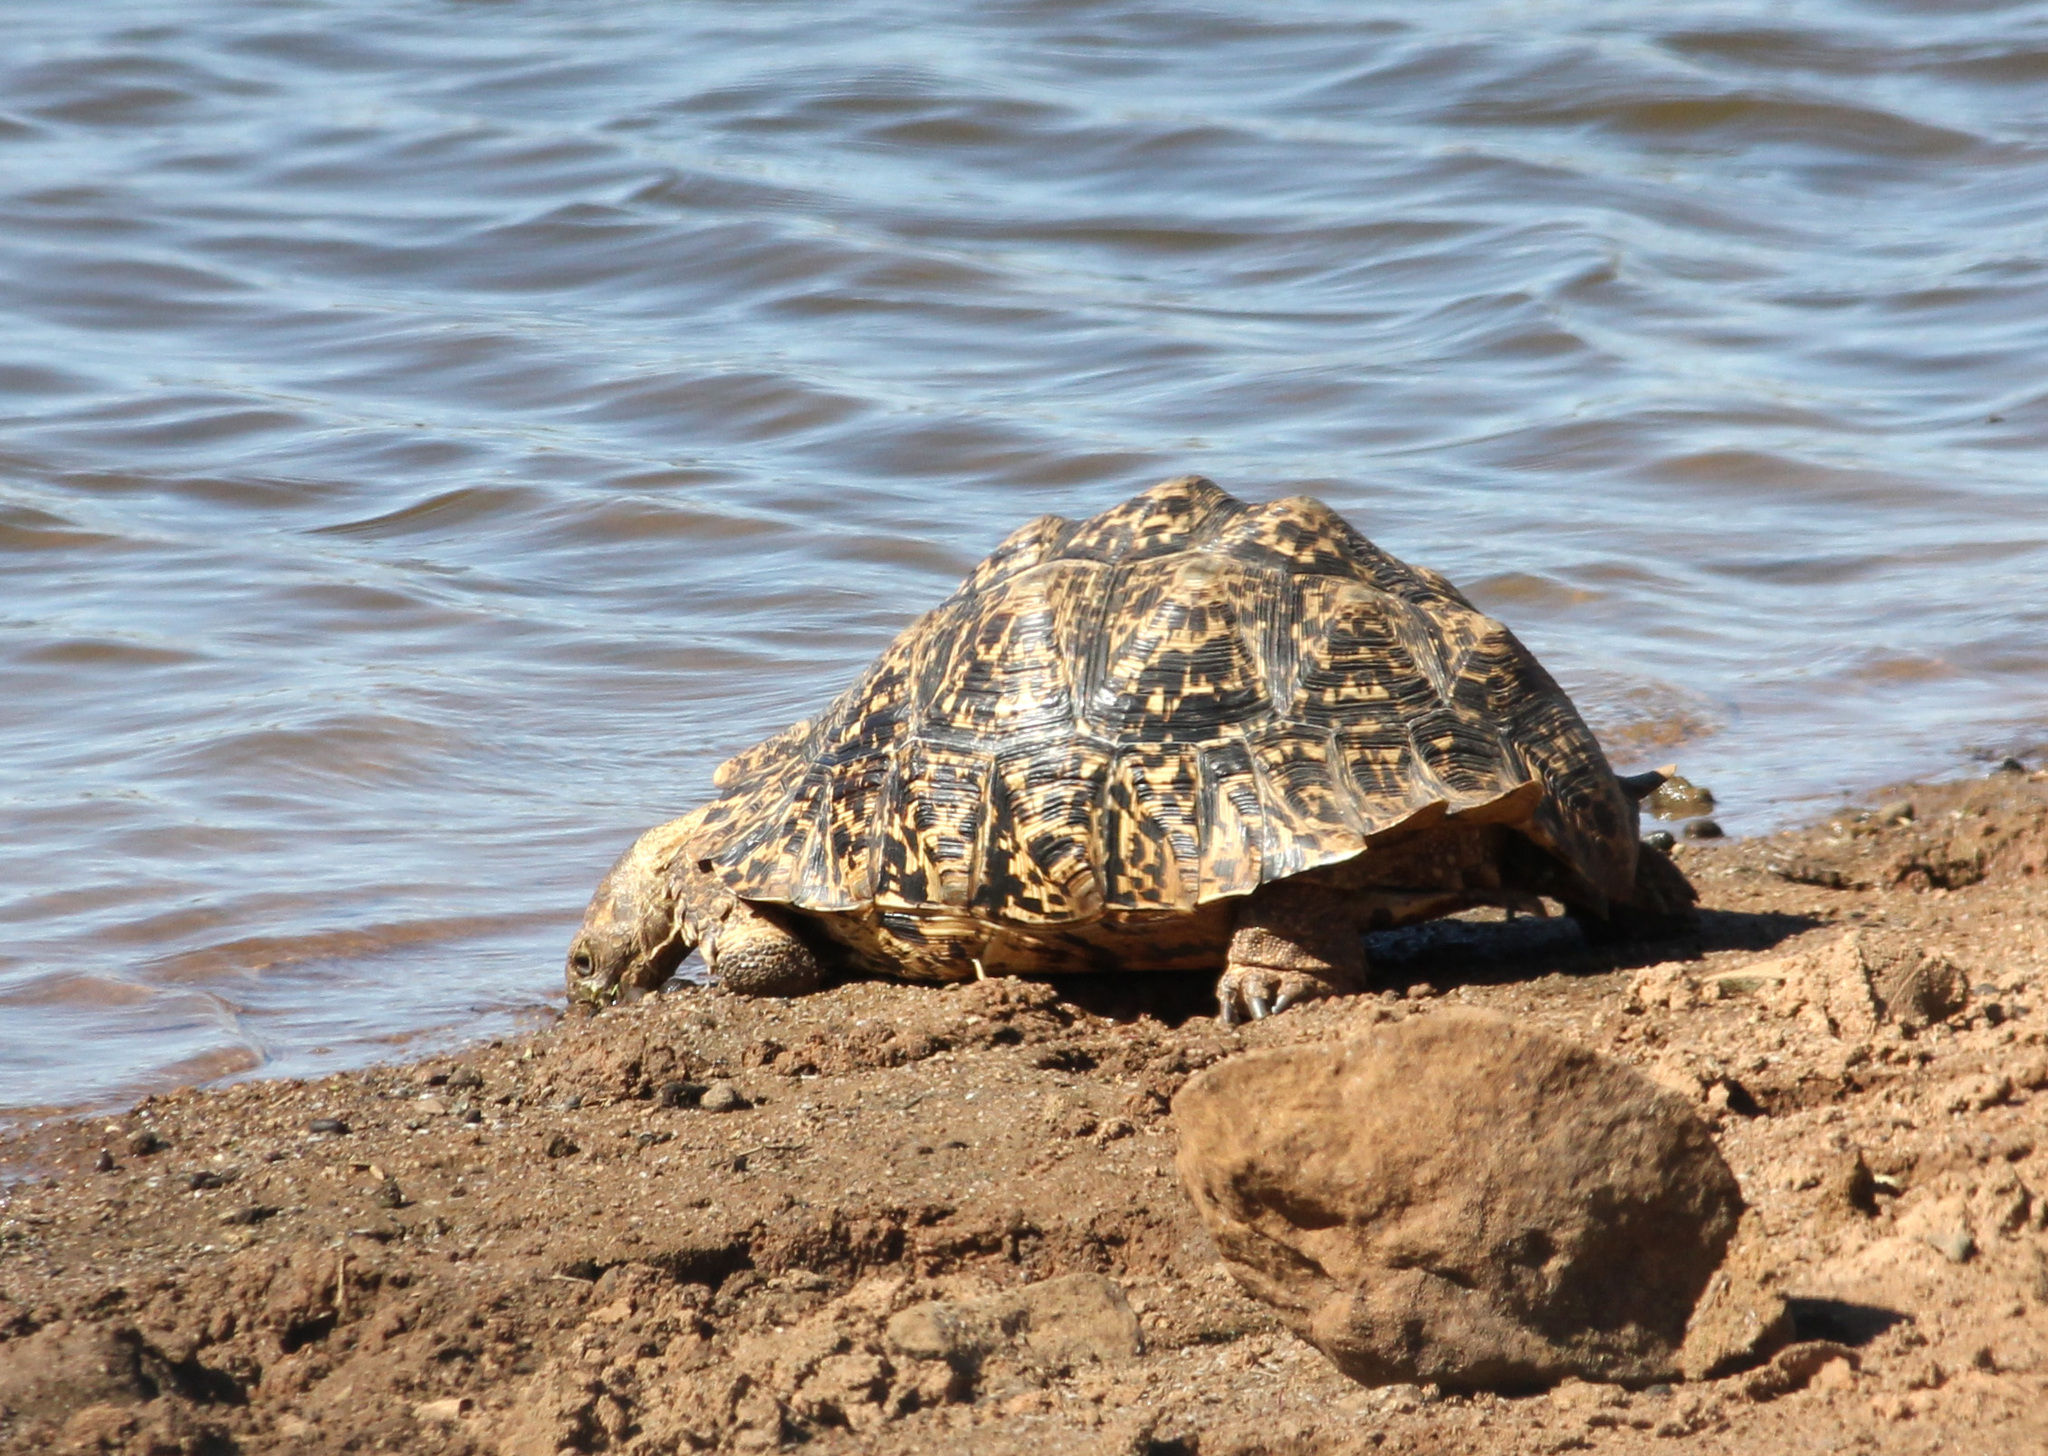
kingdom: Animalia
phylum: Chordata
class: Testudines
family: Testudinidae
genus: Stigmochelys
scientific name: Stigmochelys pardalis
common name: Leopard tortoise
